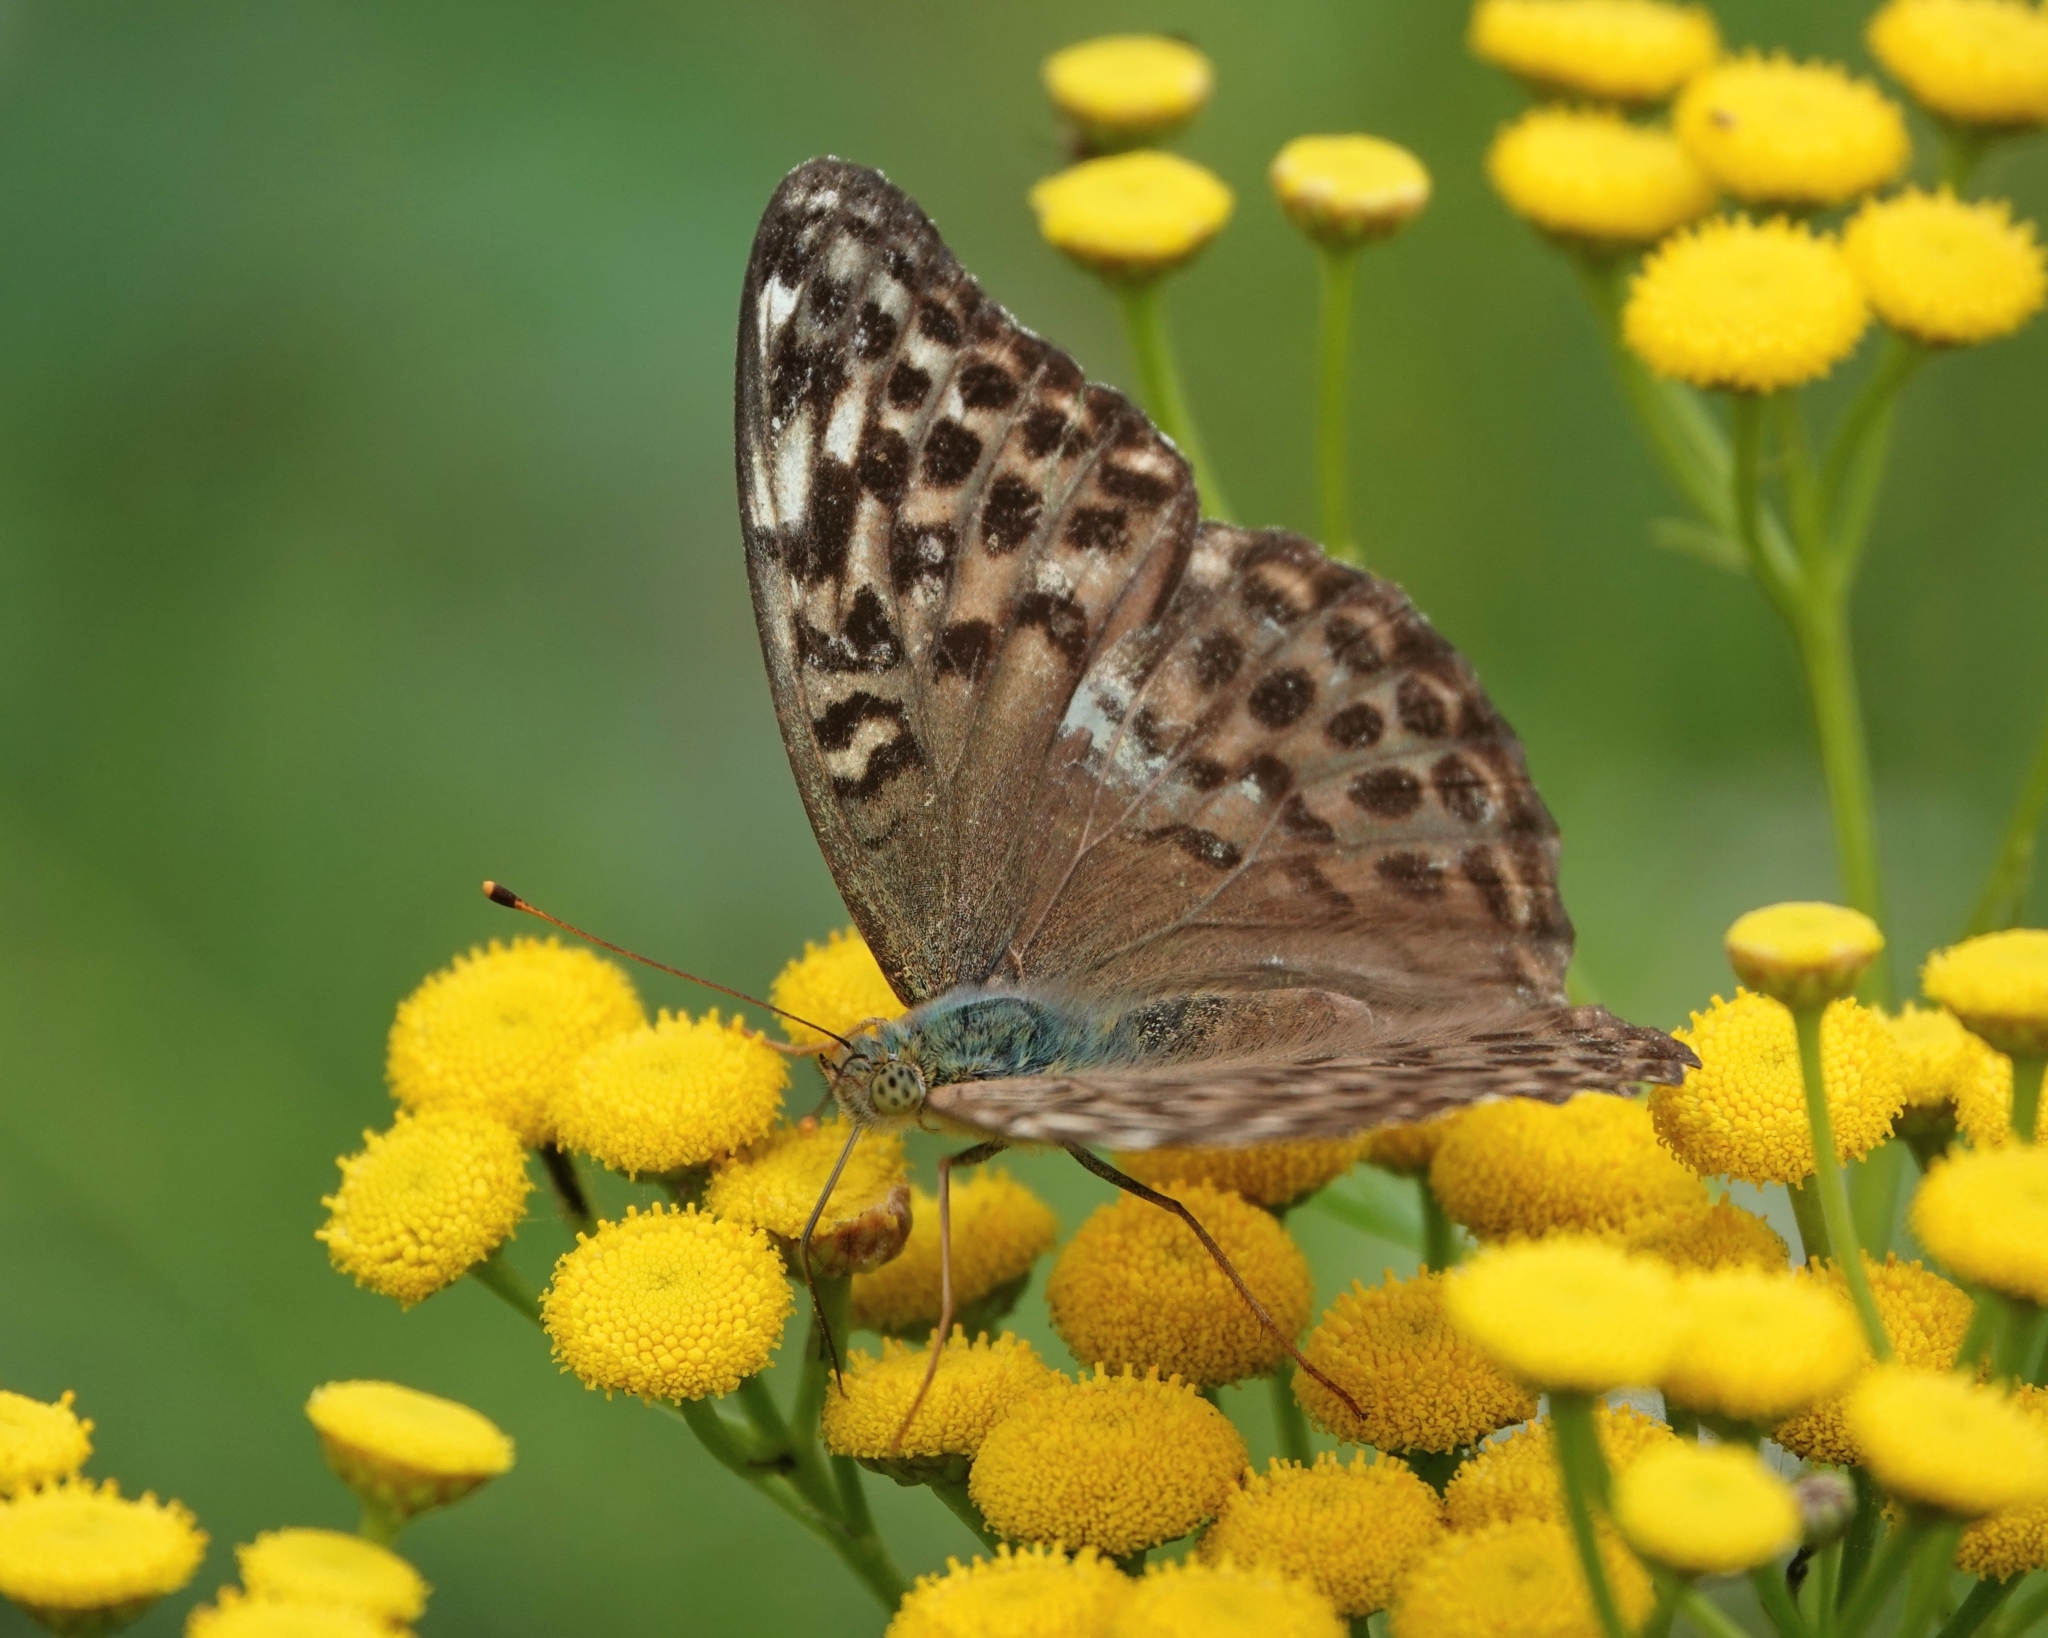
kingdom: Animalia
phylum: Arthropoda
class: Insecta
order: Lepidoptera
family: Nymphalidae
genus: Argynnis
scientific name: Argynnis paphia
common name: Silver-washed fritillary
